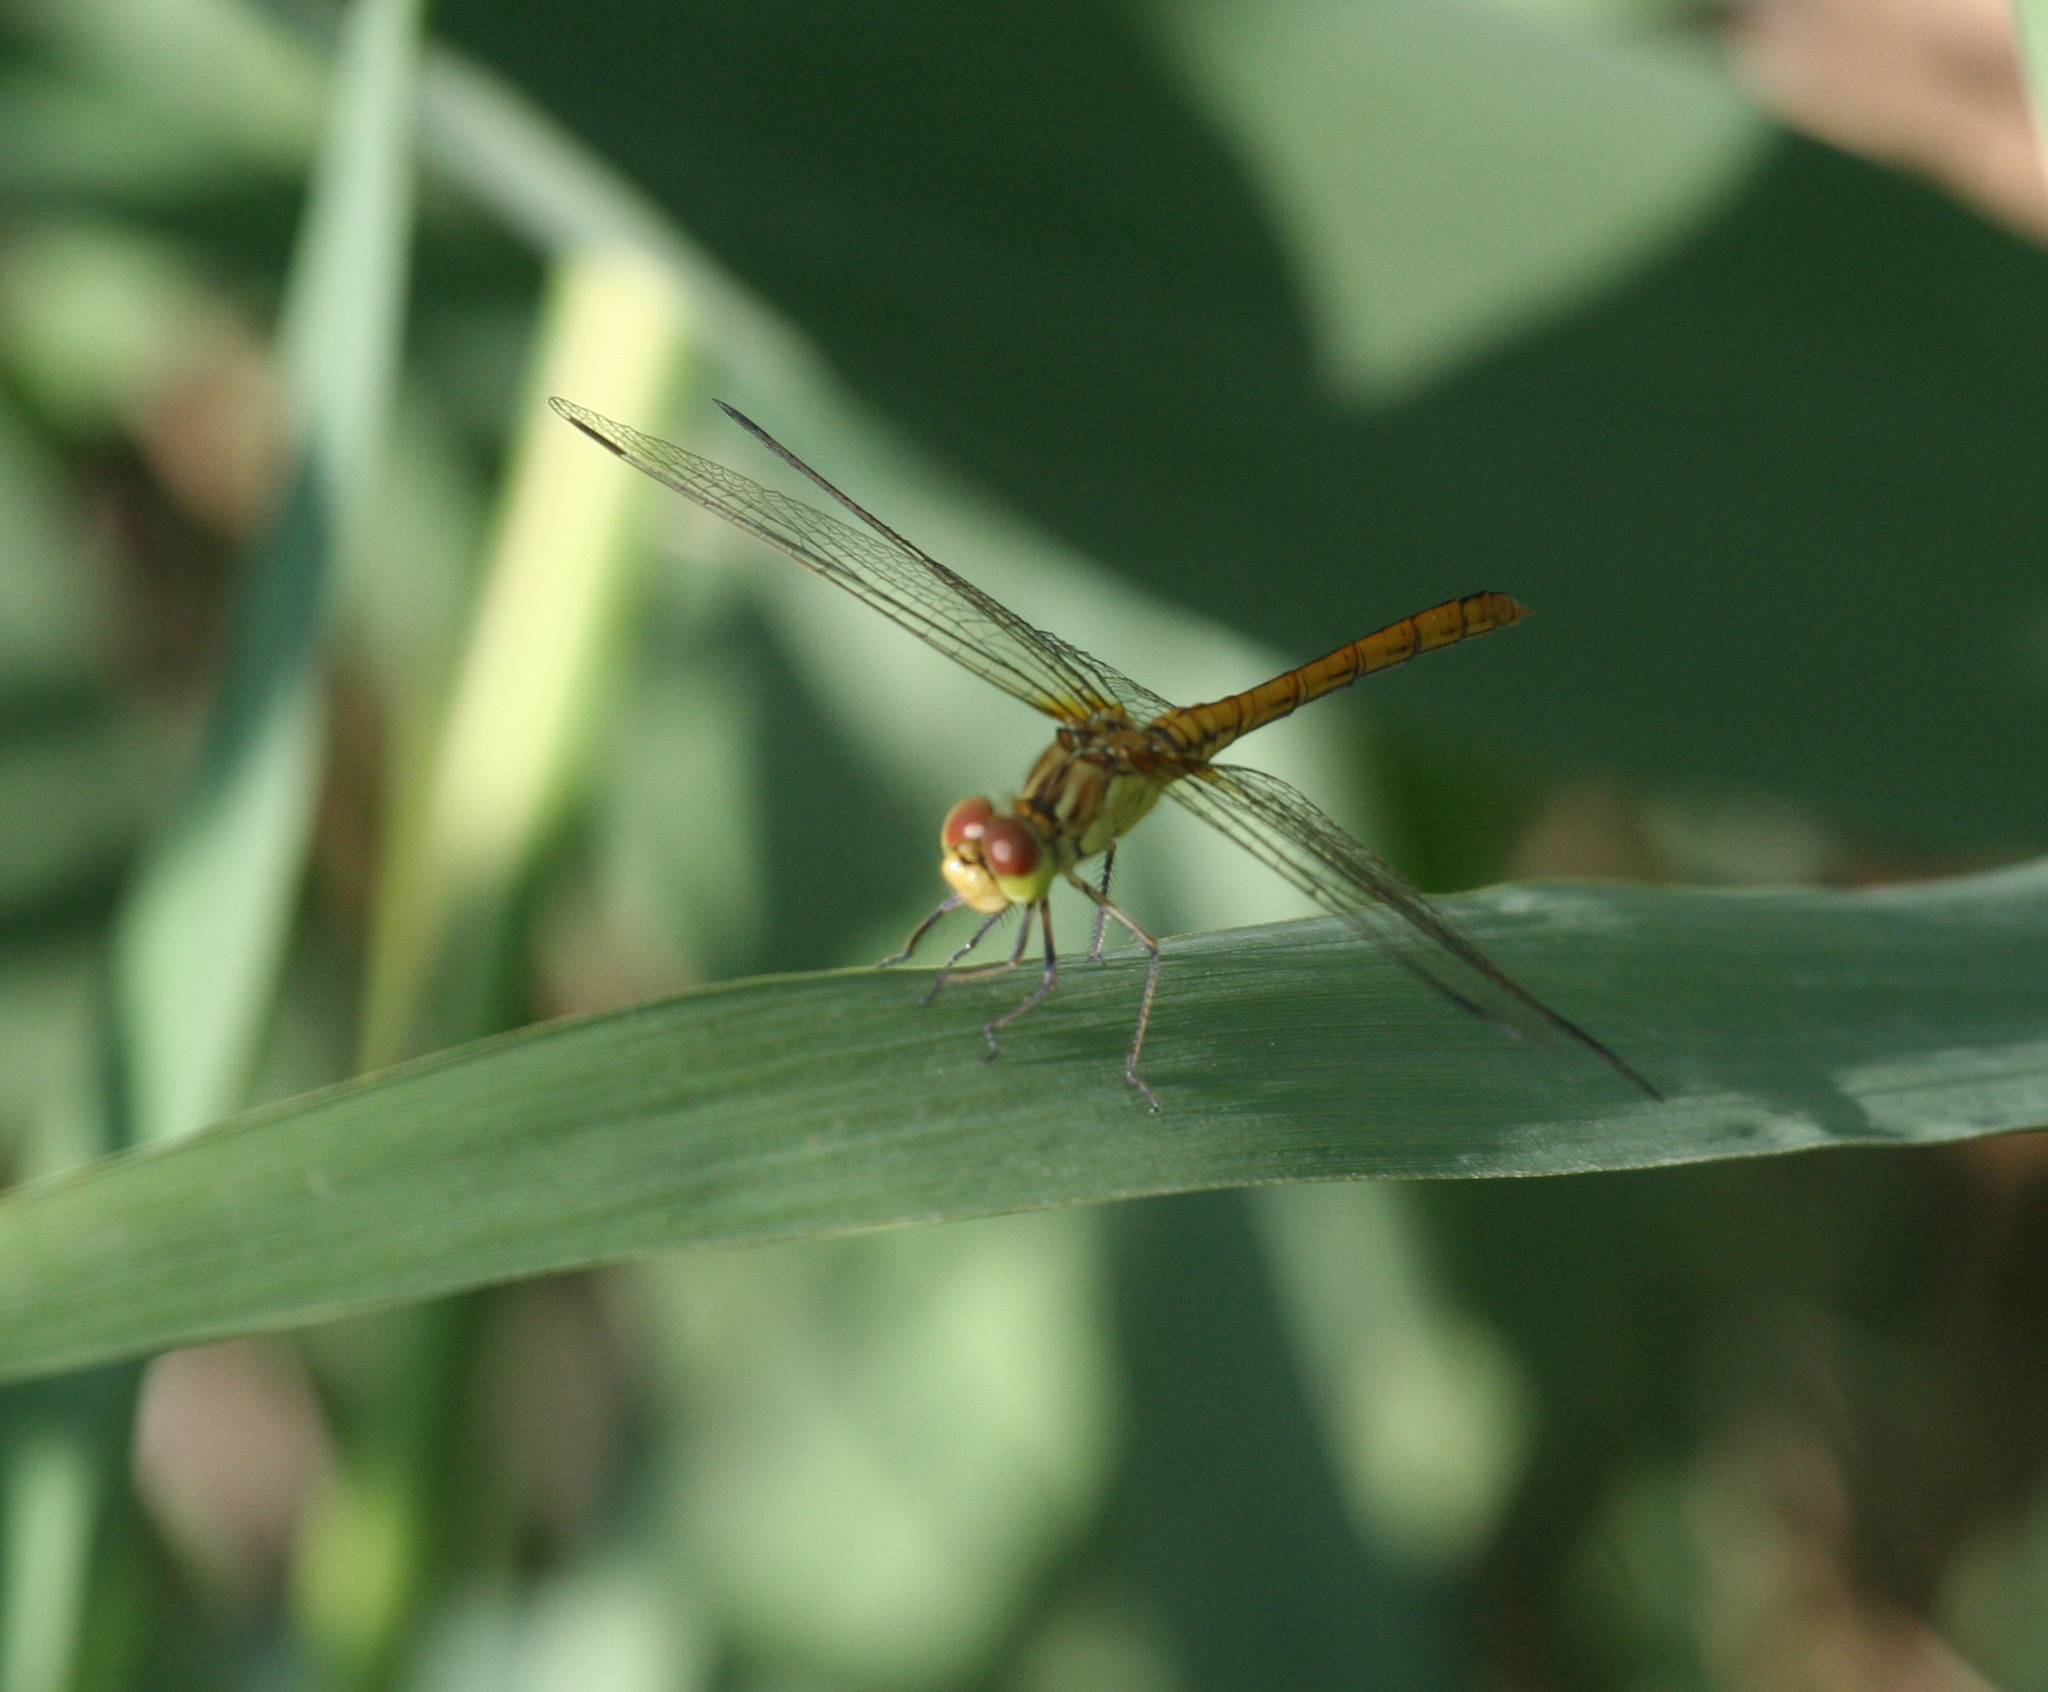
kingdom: Animalia
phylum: Arthropoda
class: Insecta
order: Odonata
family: Libellulidae
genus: Sympetrum
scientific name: Sympetrum meridionale
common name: Southern darter
